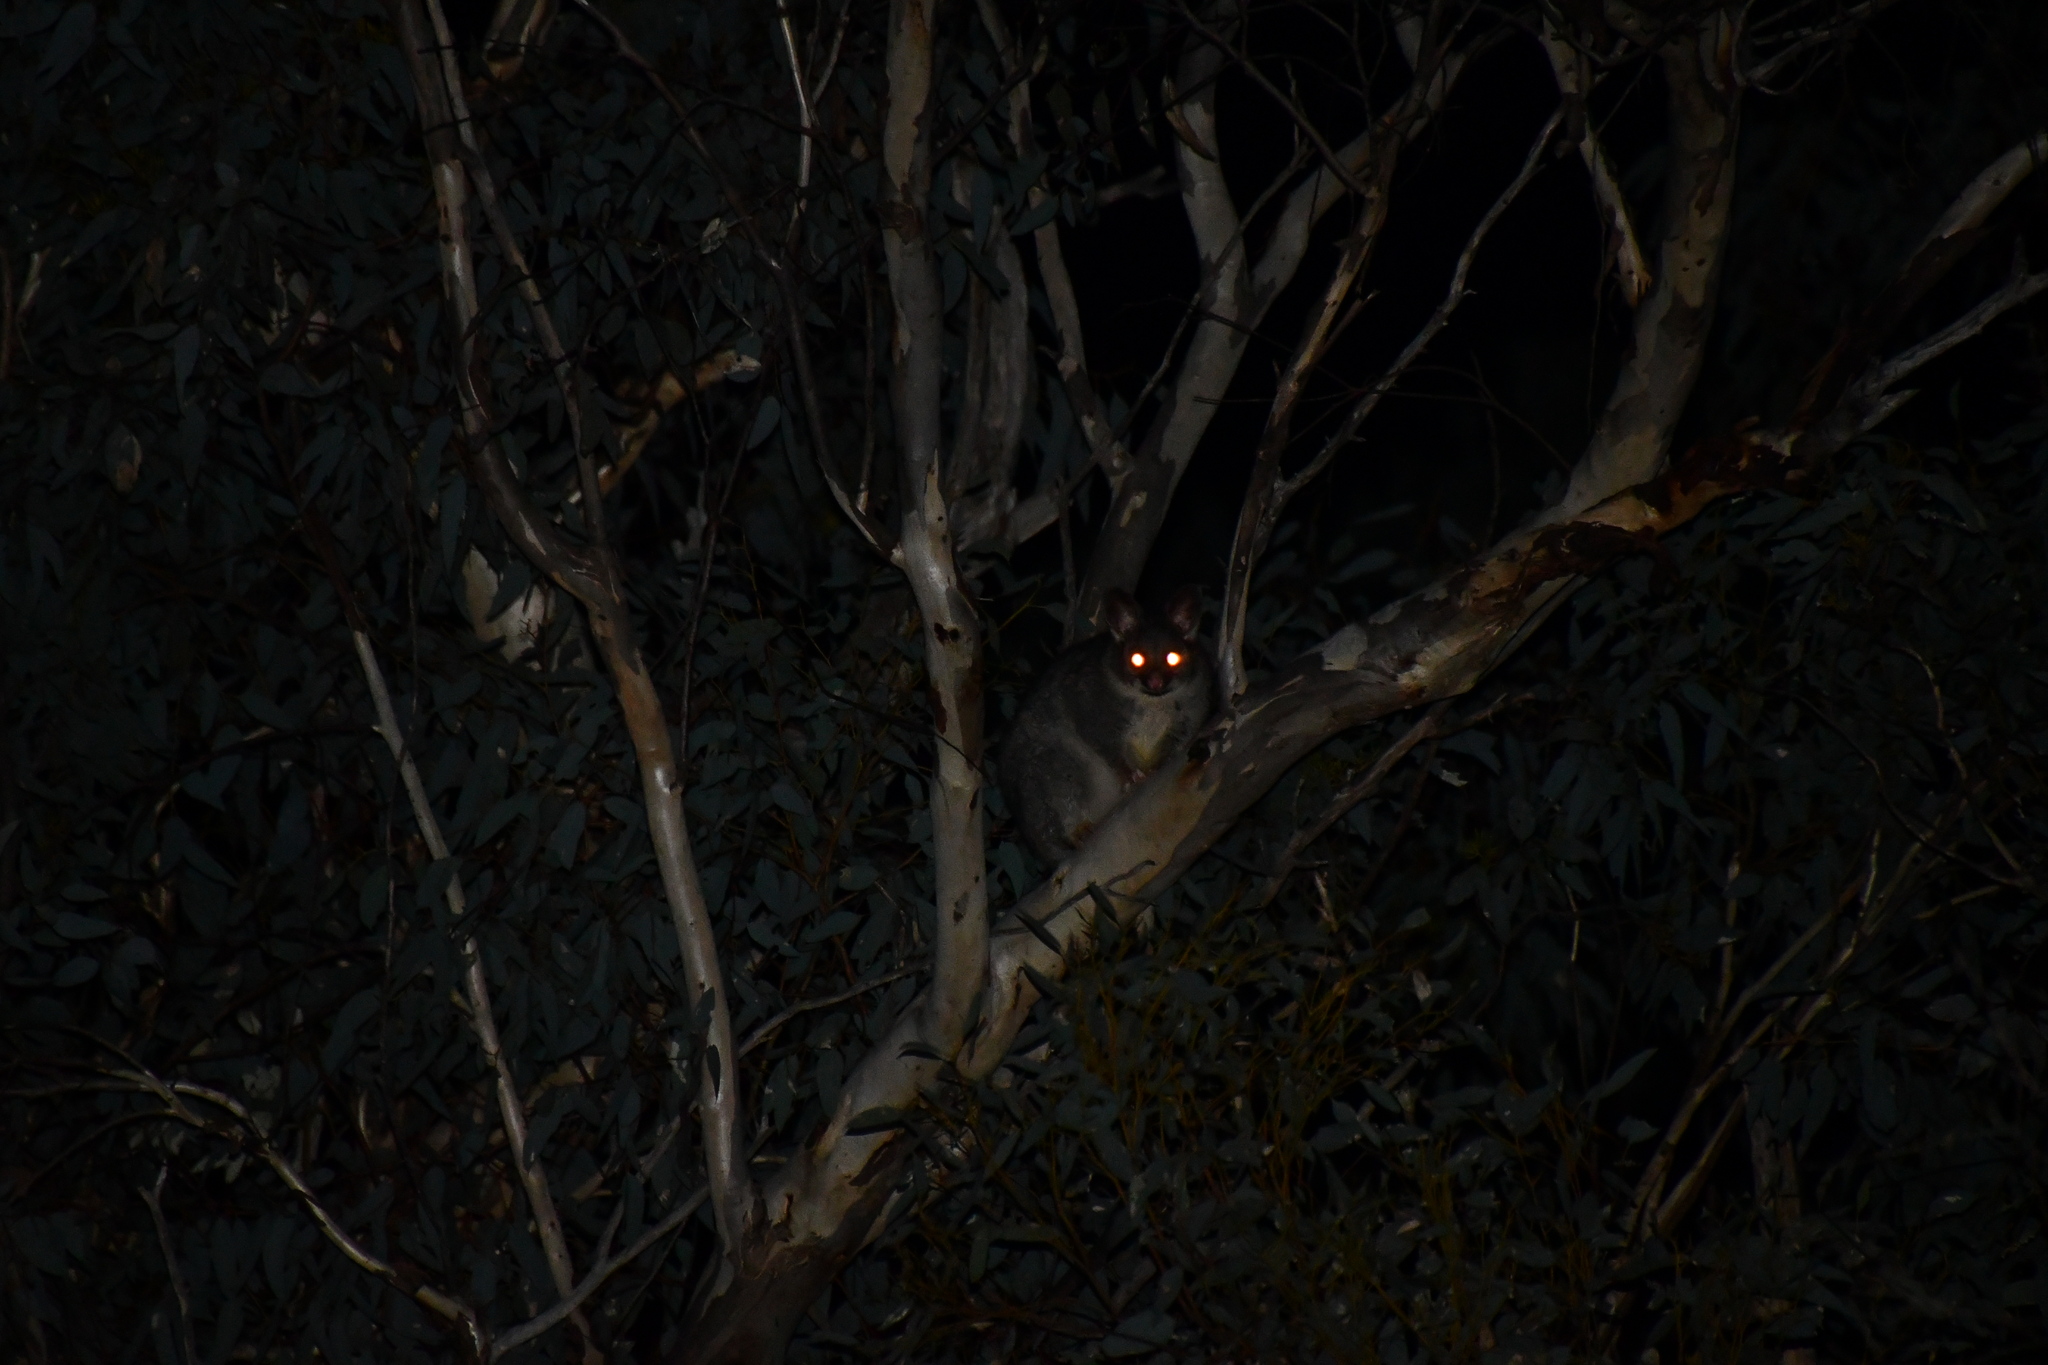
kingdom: Animalia
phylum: Chordata
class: Mammalia
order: Diprotodontia
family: Phalangeridae
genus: Trichosurus
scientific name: Trichosurus vulpecula
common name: Common brushtail
